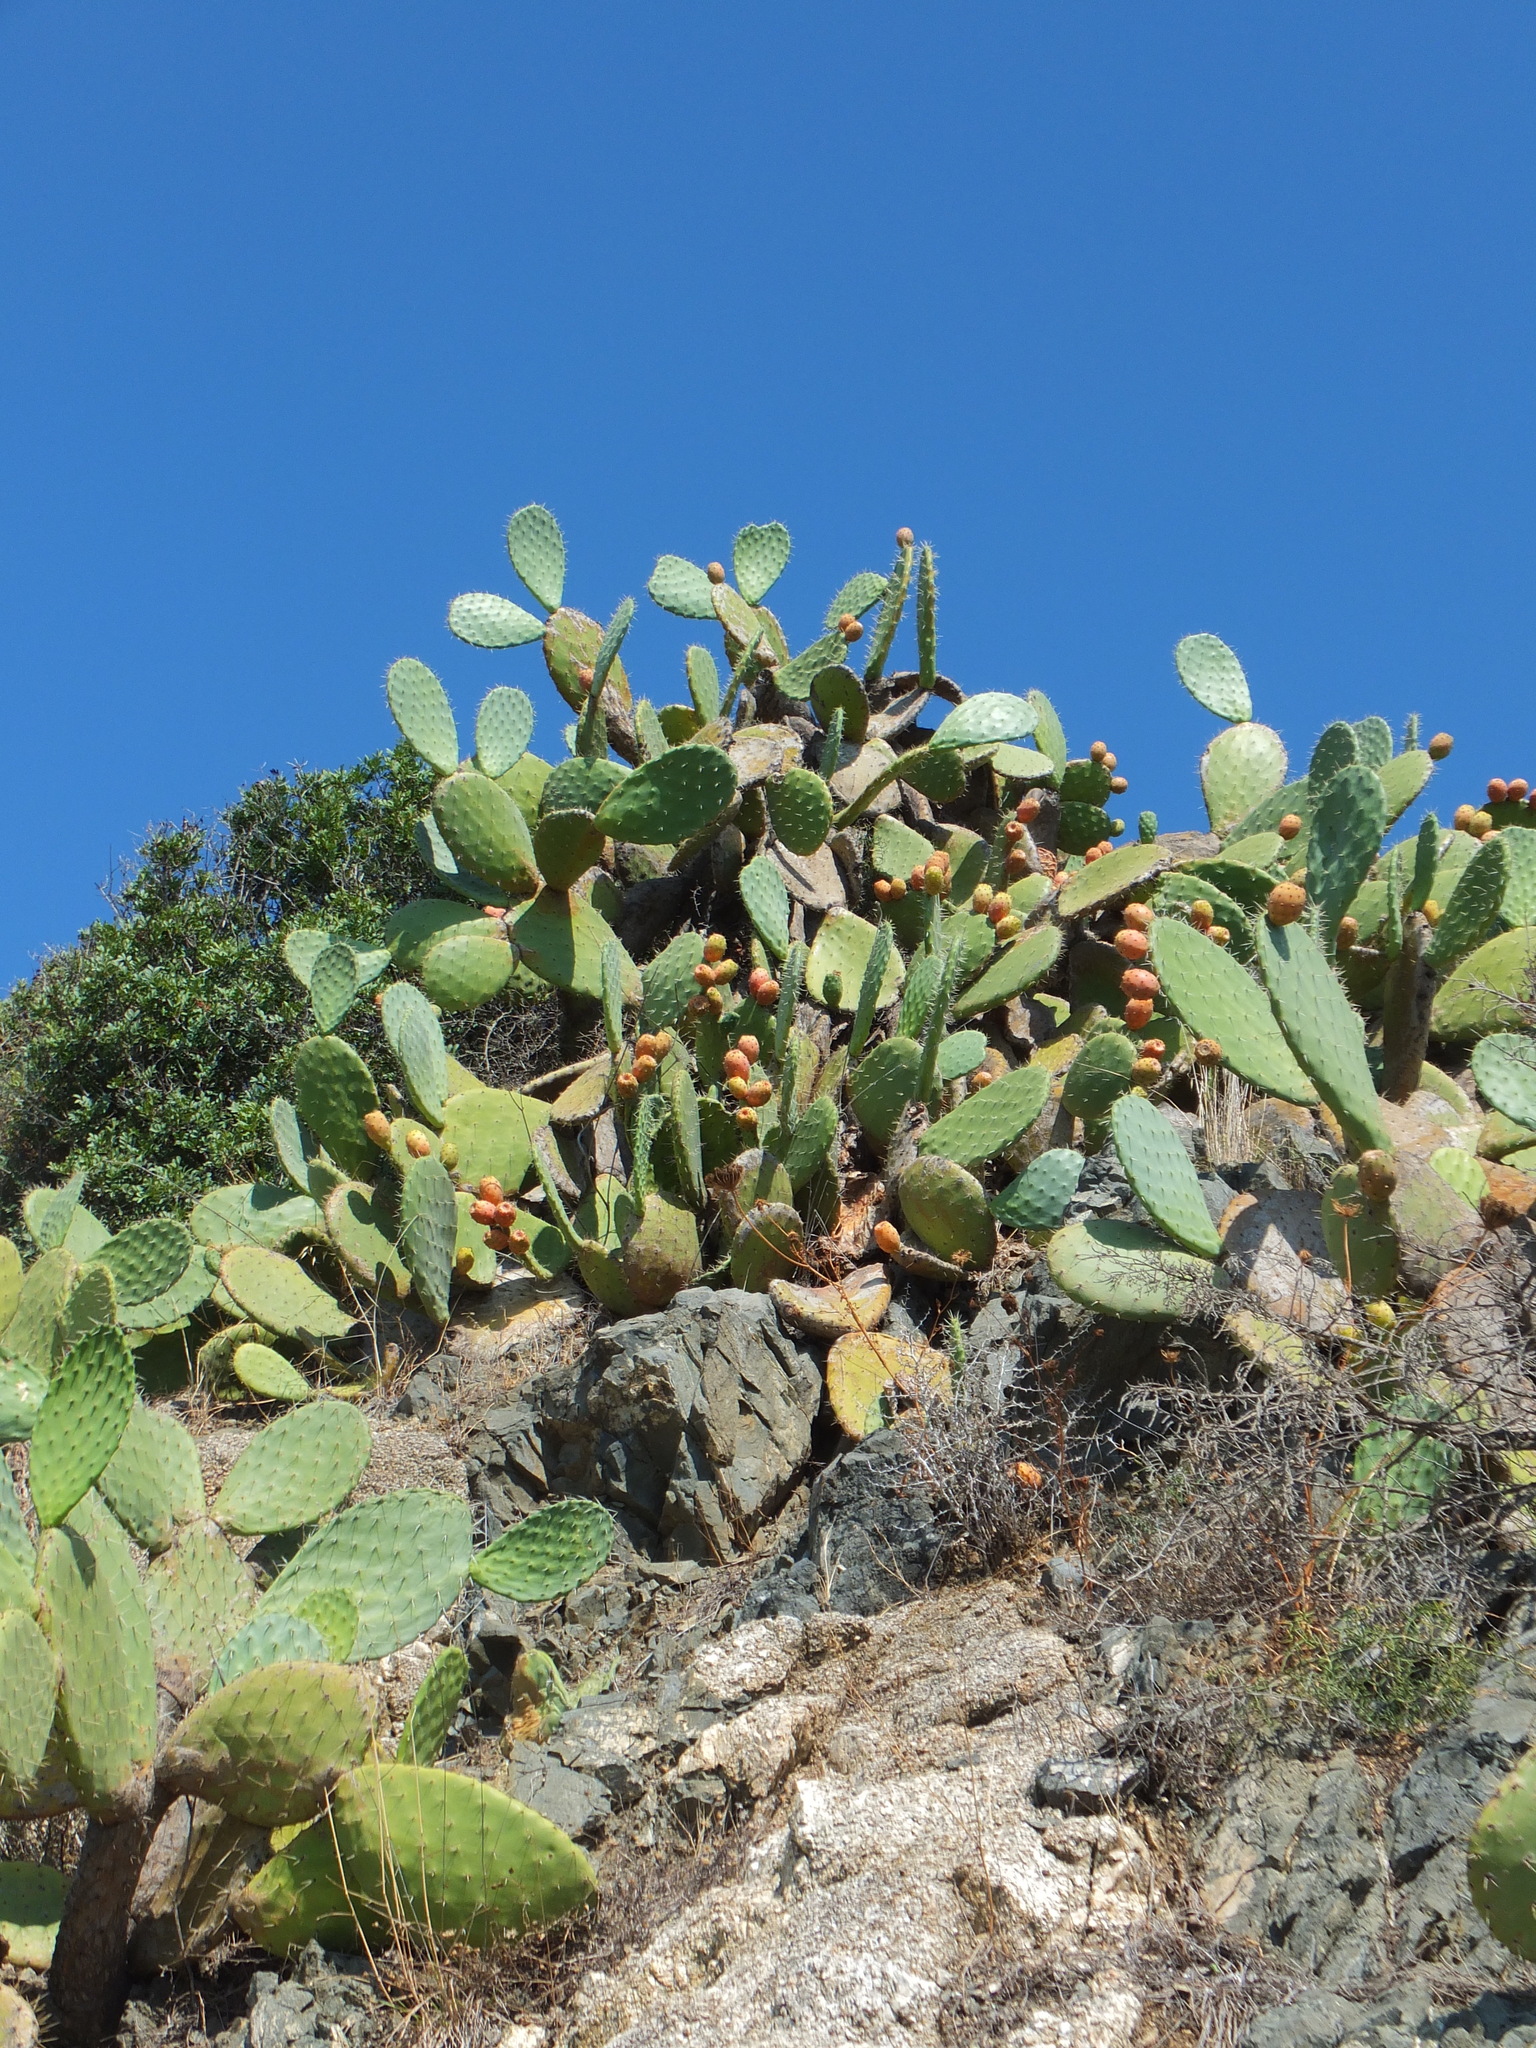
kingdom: Plantae
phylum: Tracheophyta
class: Magnoliopsida
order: Caryophyllales
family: Cactaceae
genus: Opuntia
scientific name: Opuntia ficus-indica
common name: Barbary fig
